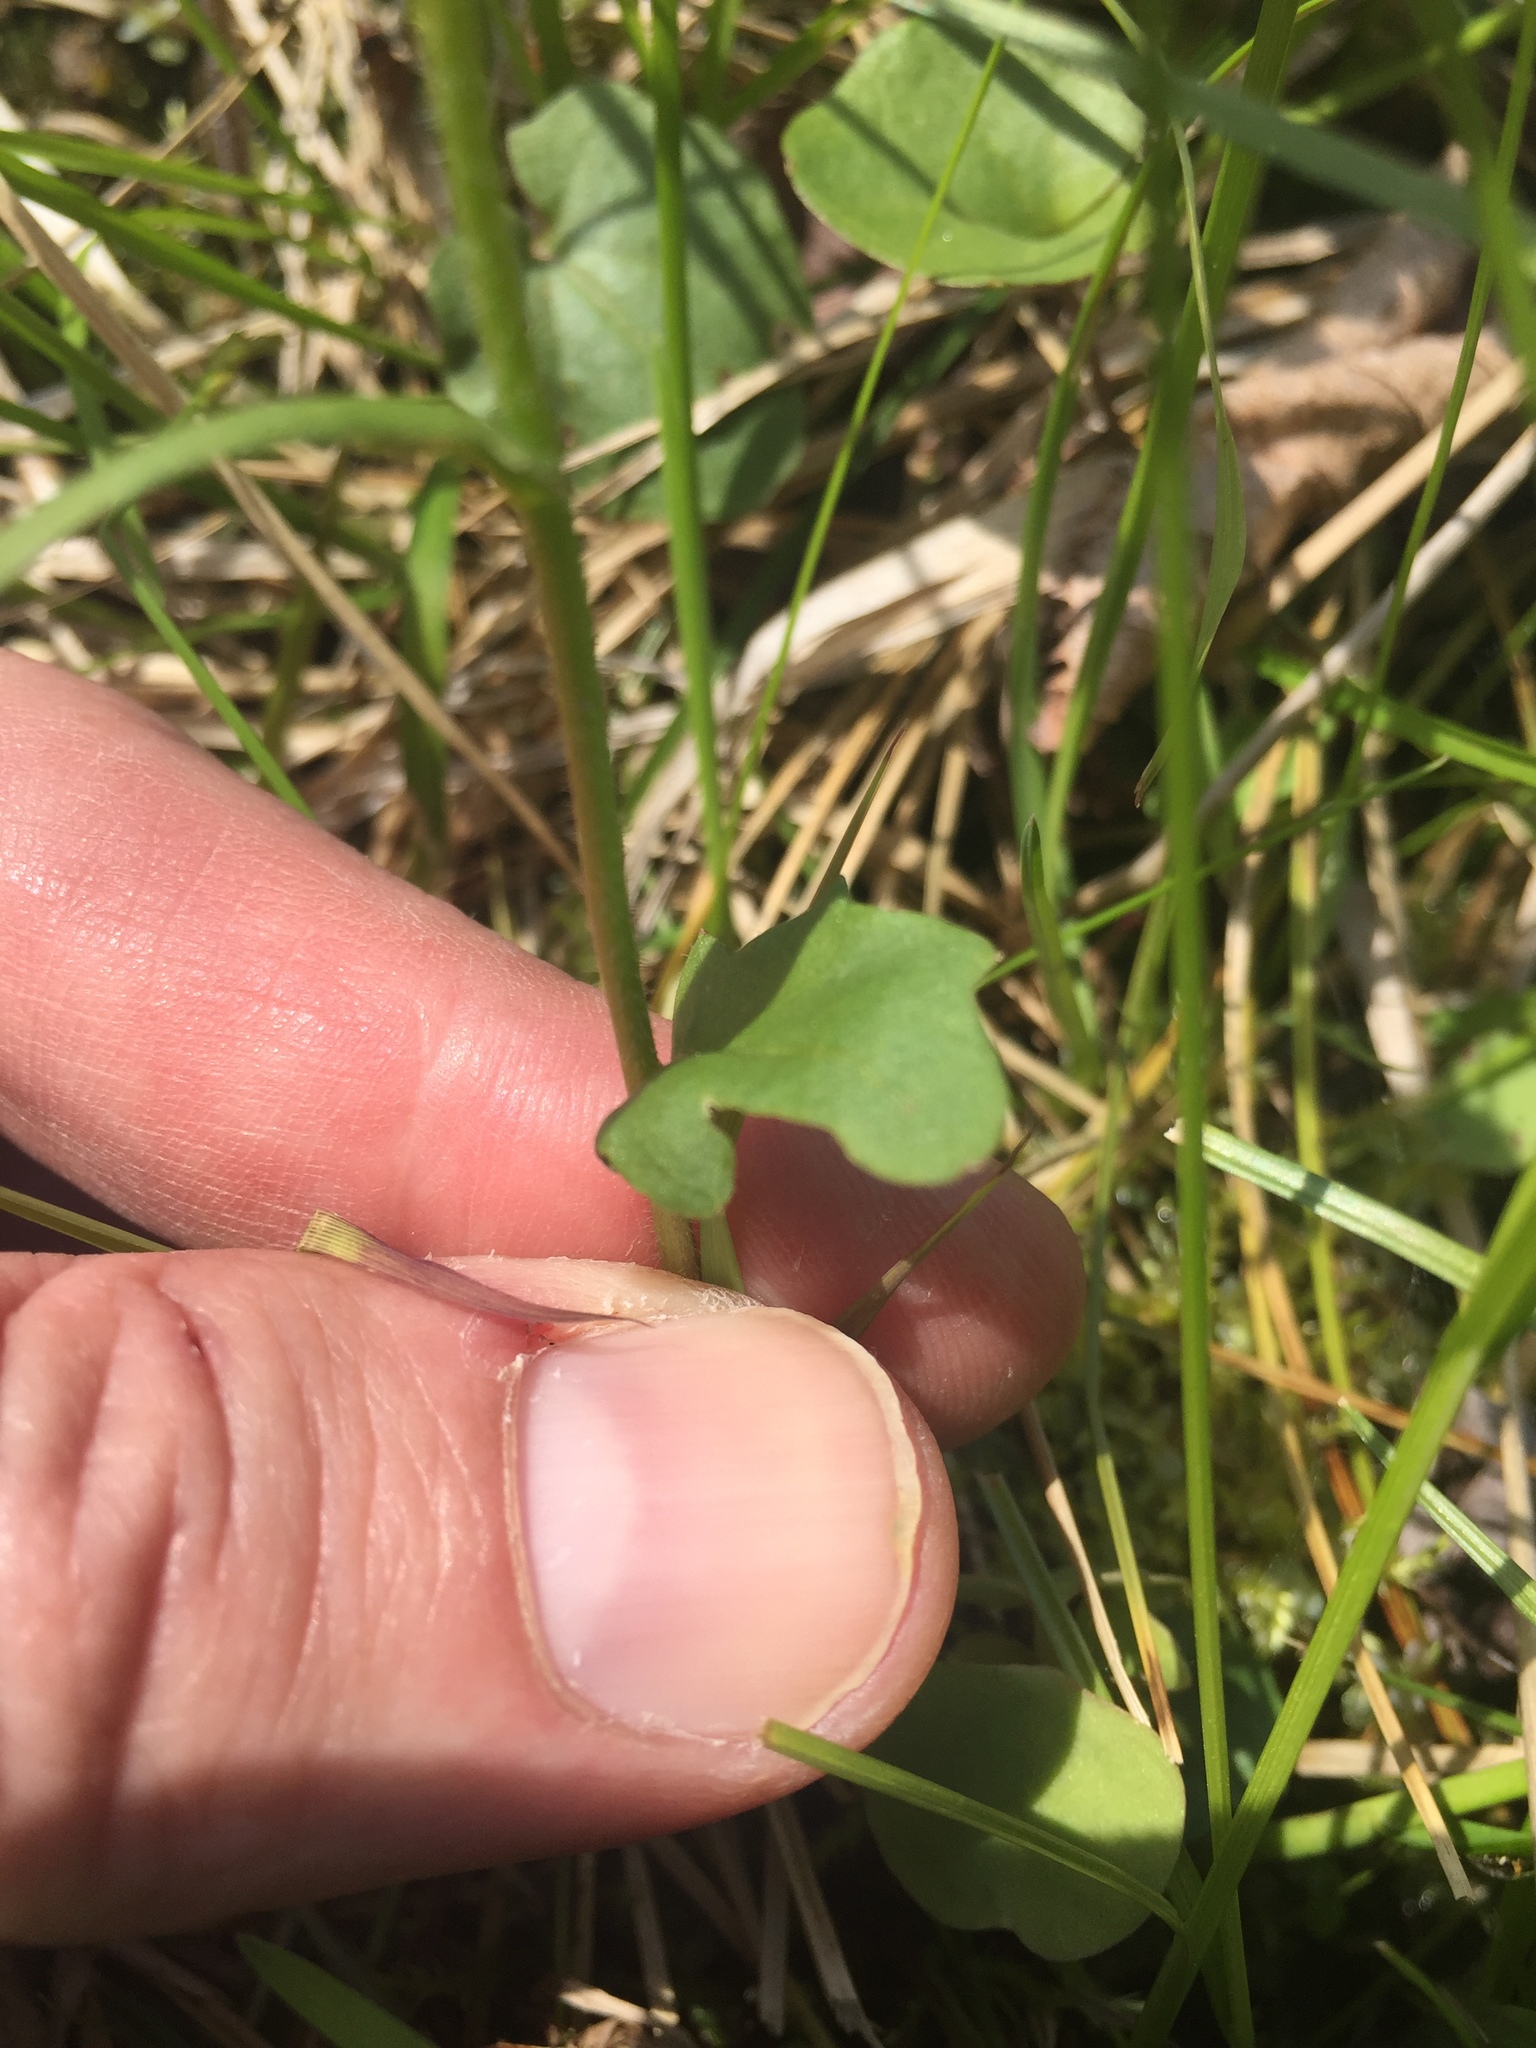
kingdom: Plantae
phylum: Tracheophyta
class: Magnoliopsida
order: Brassicales
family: Brassicaceae
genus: Cardamine
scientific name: Cardamine bulbosa
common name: Spring cress
